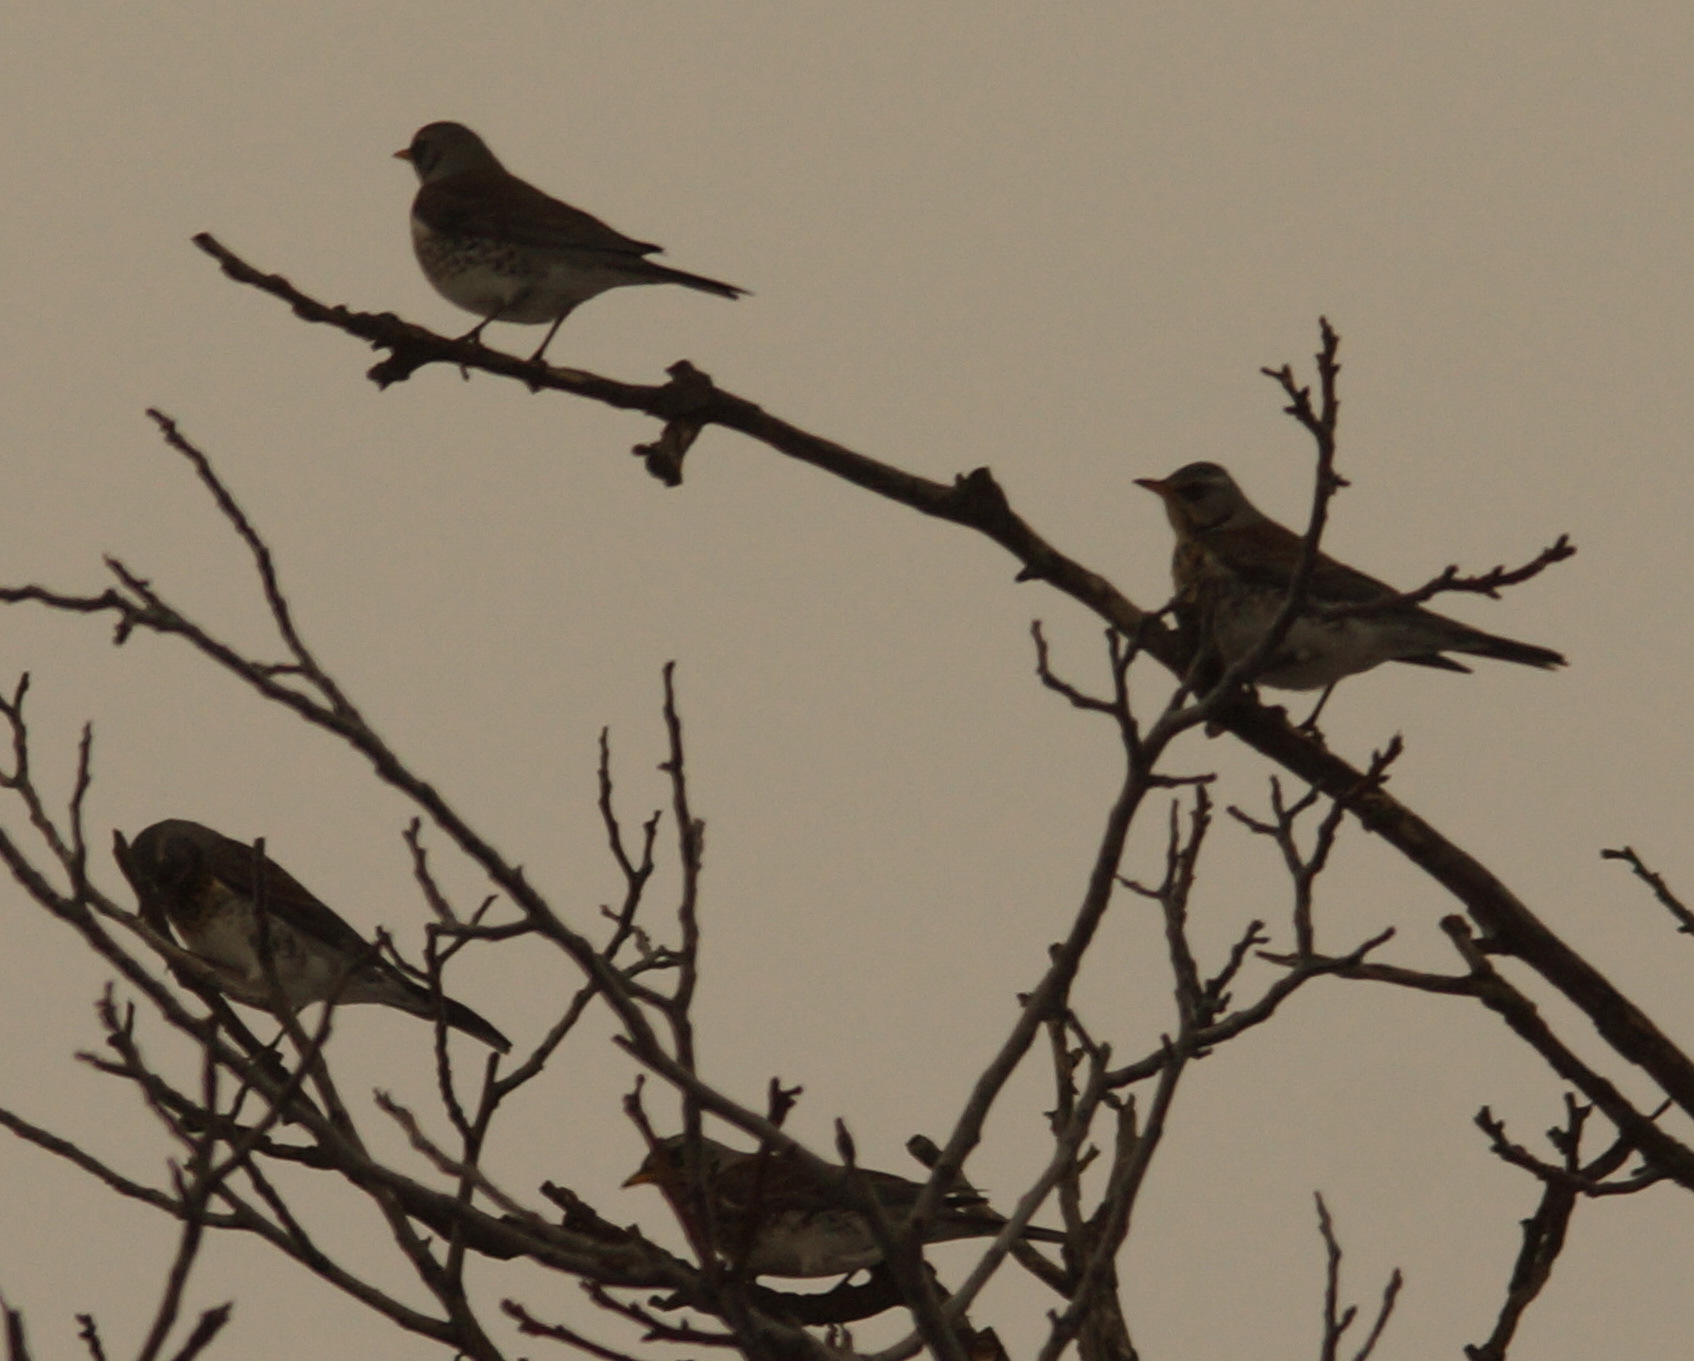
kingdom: Animalia
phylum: Chordata
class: Aves
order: Passeriformes
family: Turdidae
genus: Turdus
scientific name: Turdus pilaris
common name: Fieldfare
